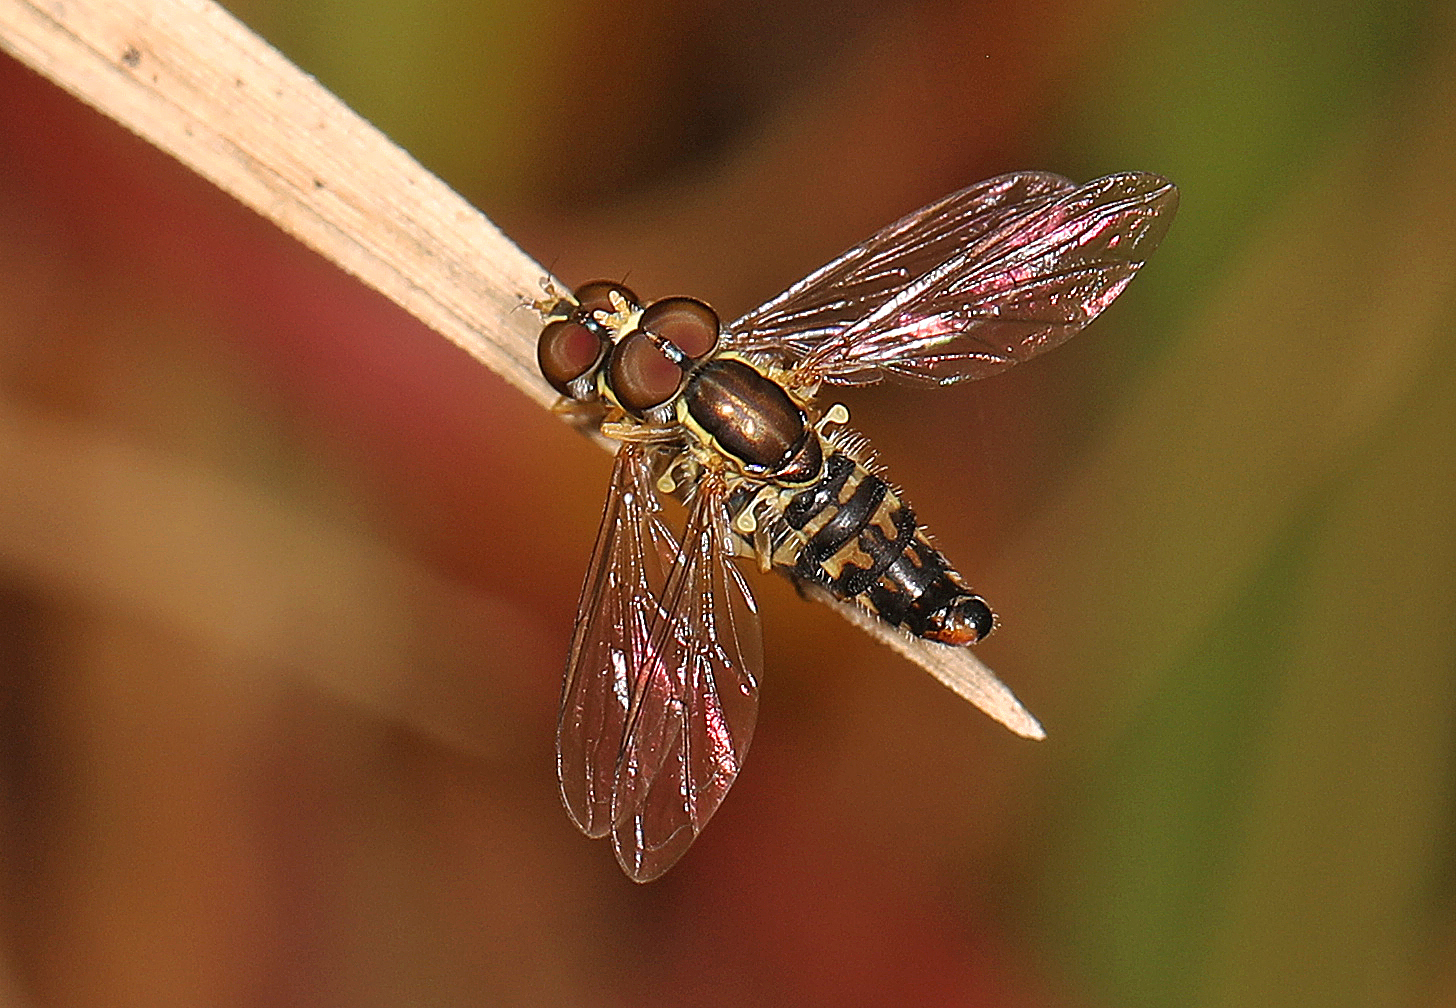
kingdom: Animalia
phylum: Arthropoda
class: Insecta
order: Diptera
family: Syrphidae
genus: Toxomerus
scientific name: Toxomerus geminatus
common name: Eastern calligrapher
